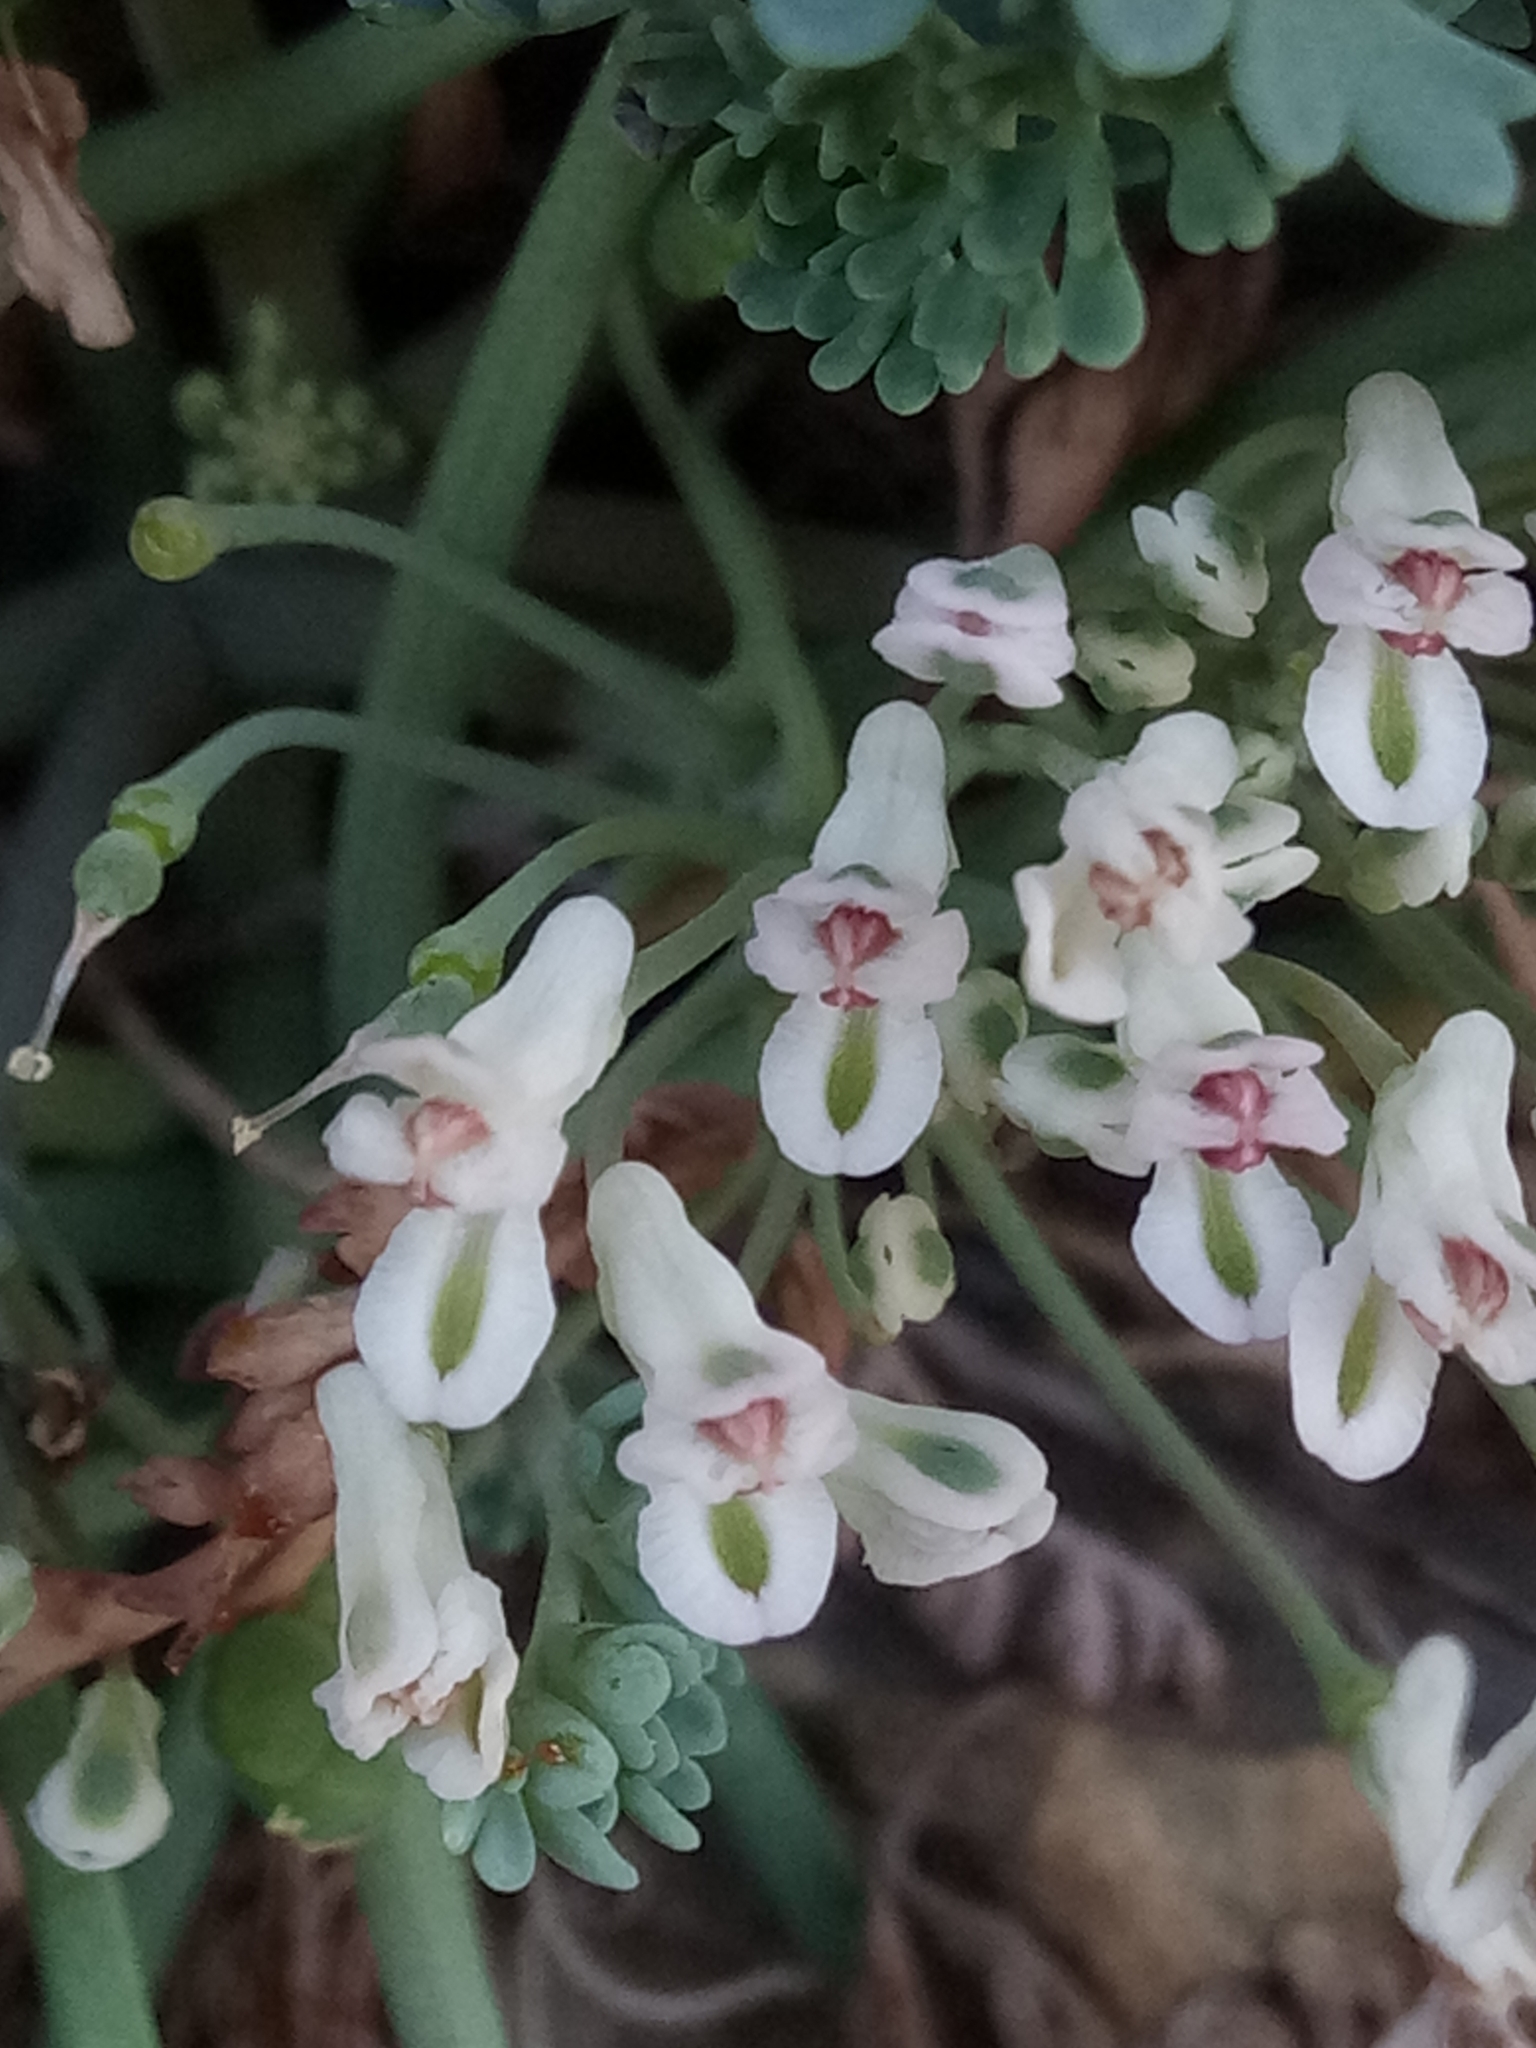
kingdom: Plantae
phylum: Tracheophyta
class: Magnoliopsida
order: Ranunculales
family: Papaveraceae
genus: Rupicapnos
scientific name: Rupicapnos numidica
